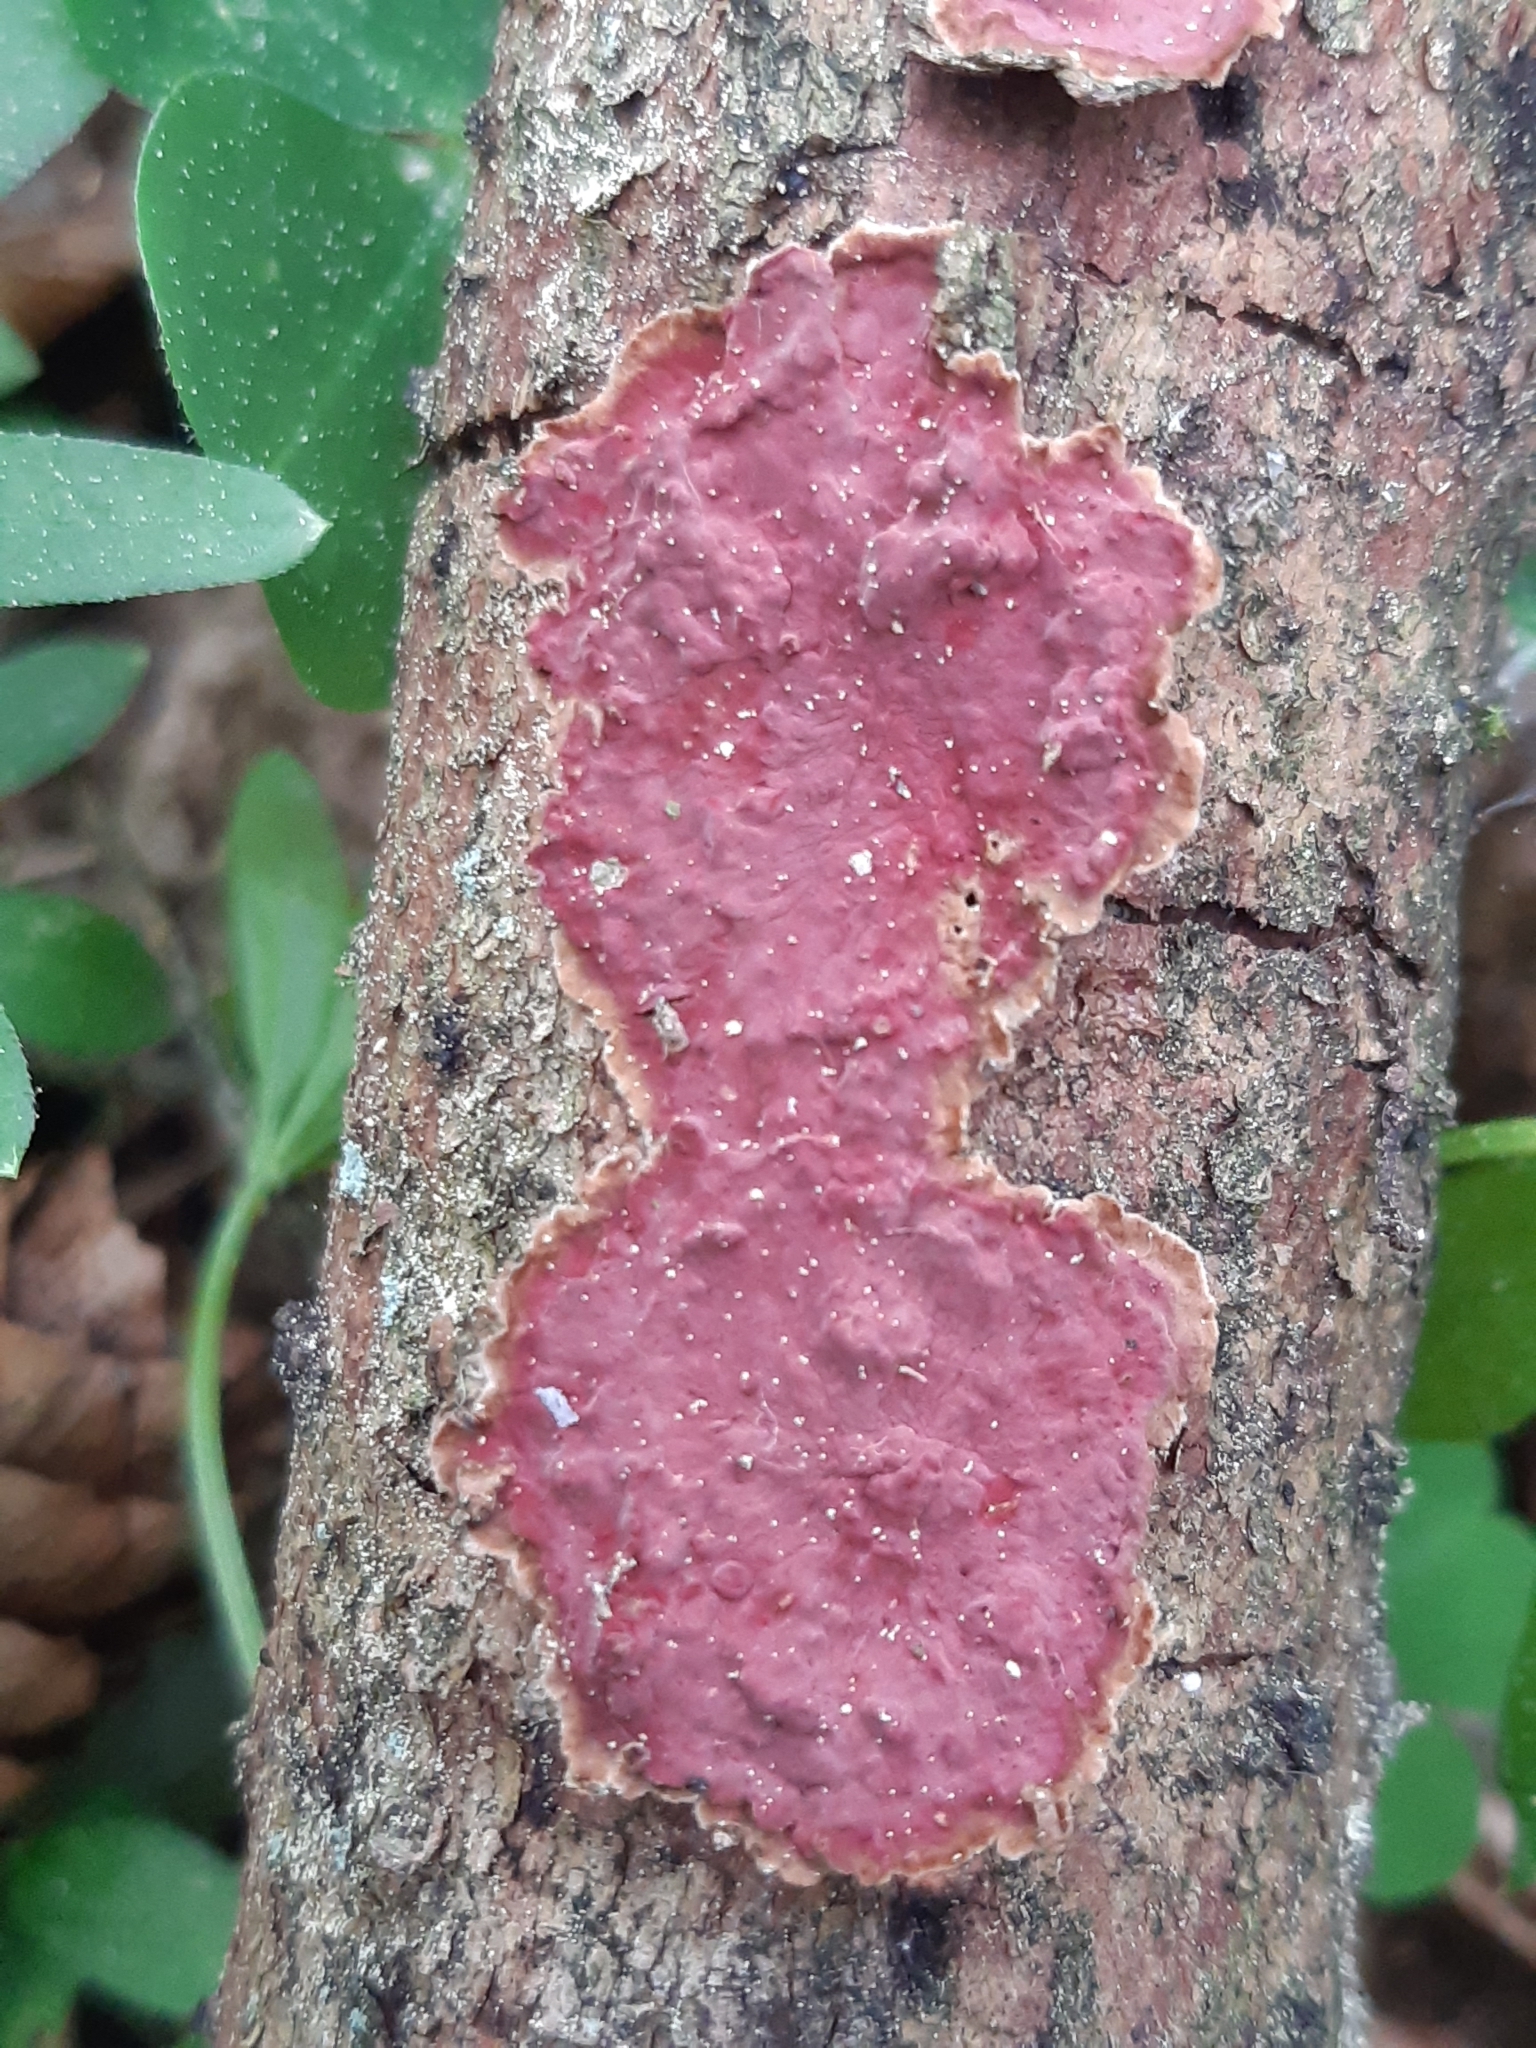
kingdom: Fungi
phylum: Basidiomycota
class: Agaricomycetes
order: Hymenochaetales
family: Hymenochaetaceae
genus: Hymenochaete
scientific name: Hymenochaete cruenta
